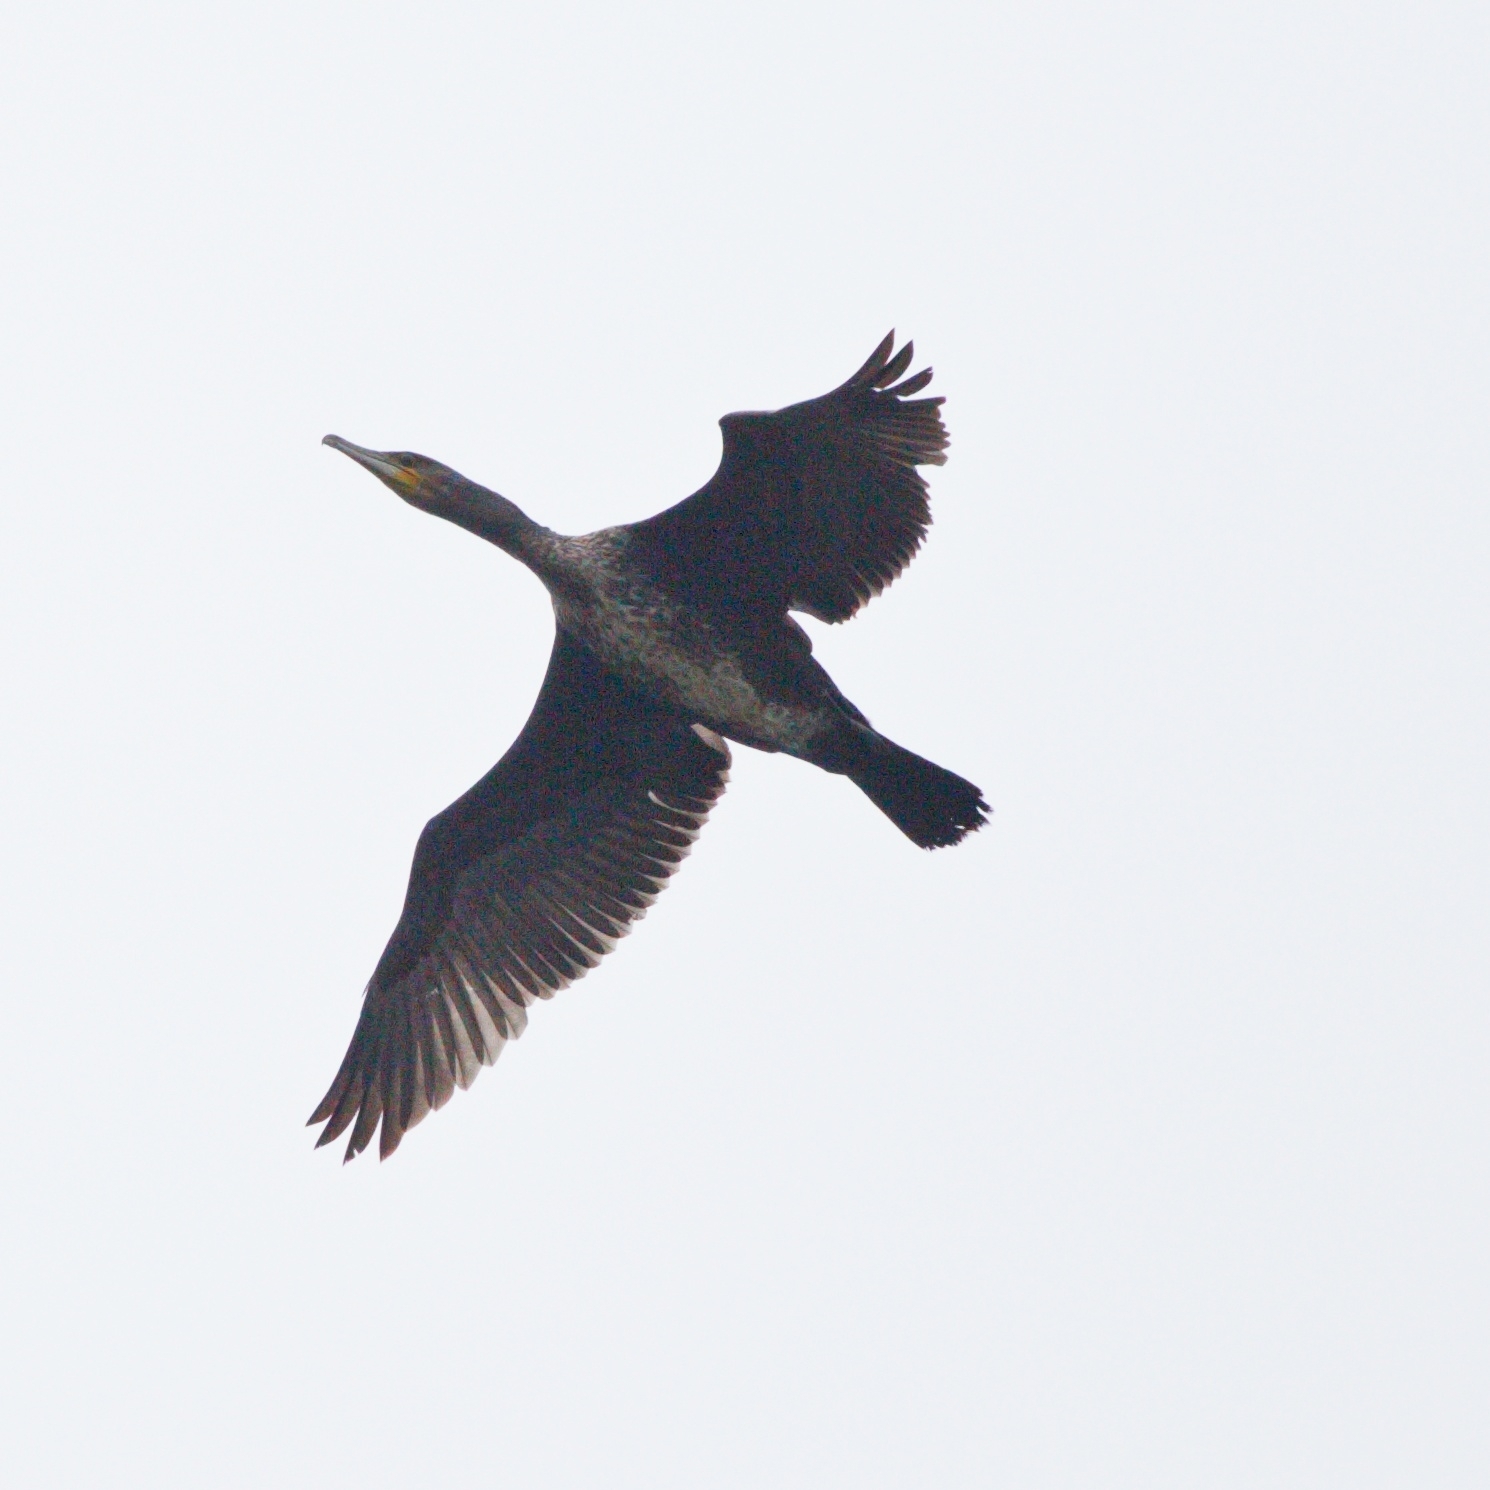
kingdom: Animalia
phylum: Chordata
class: Aves
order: Suliformes
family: Phalacrocoracidae
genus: Phalacrocorax
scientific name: Phalacrocorax carbo
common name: Great cormorant
